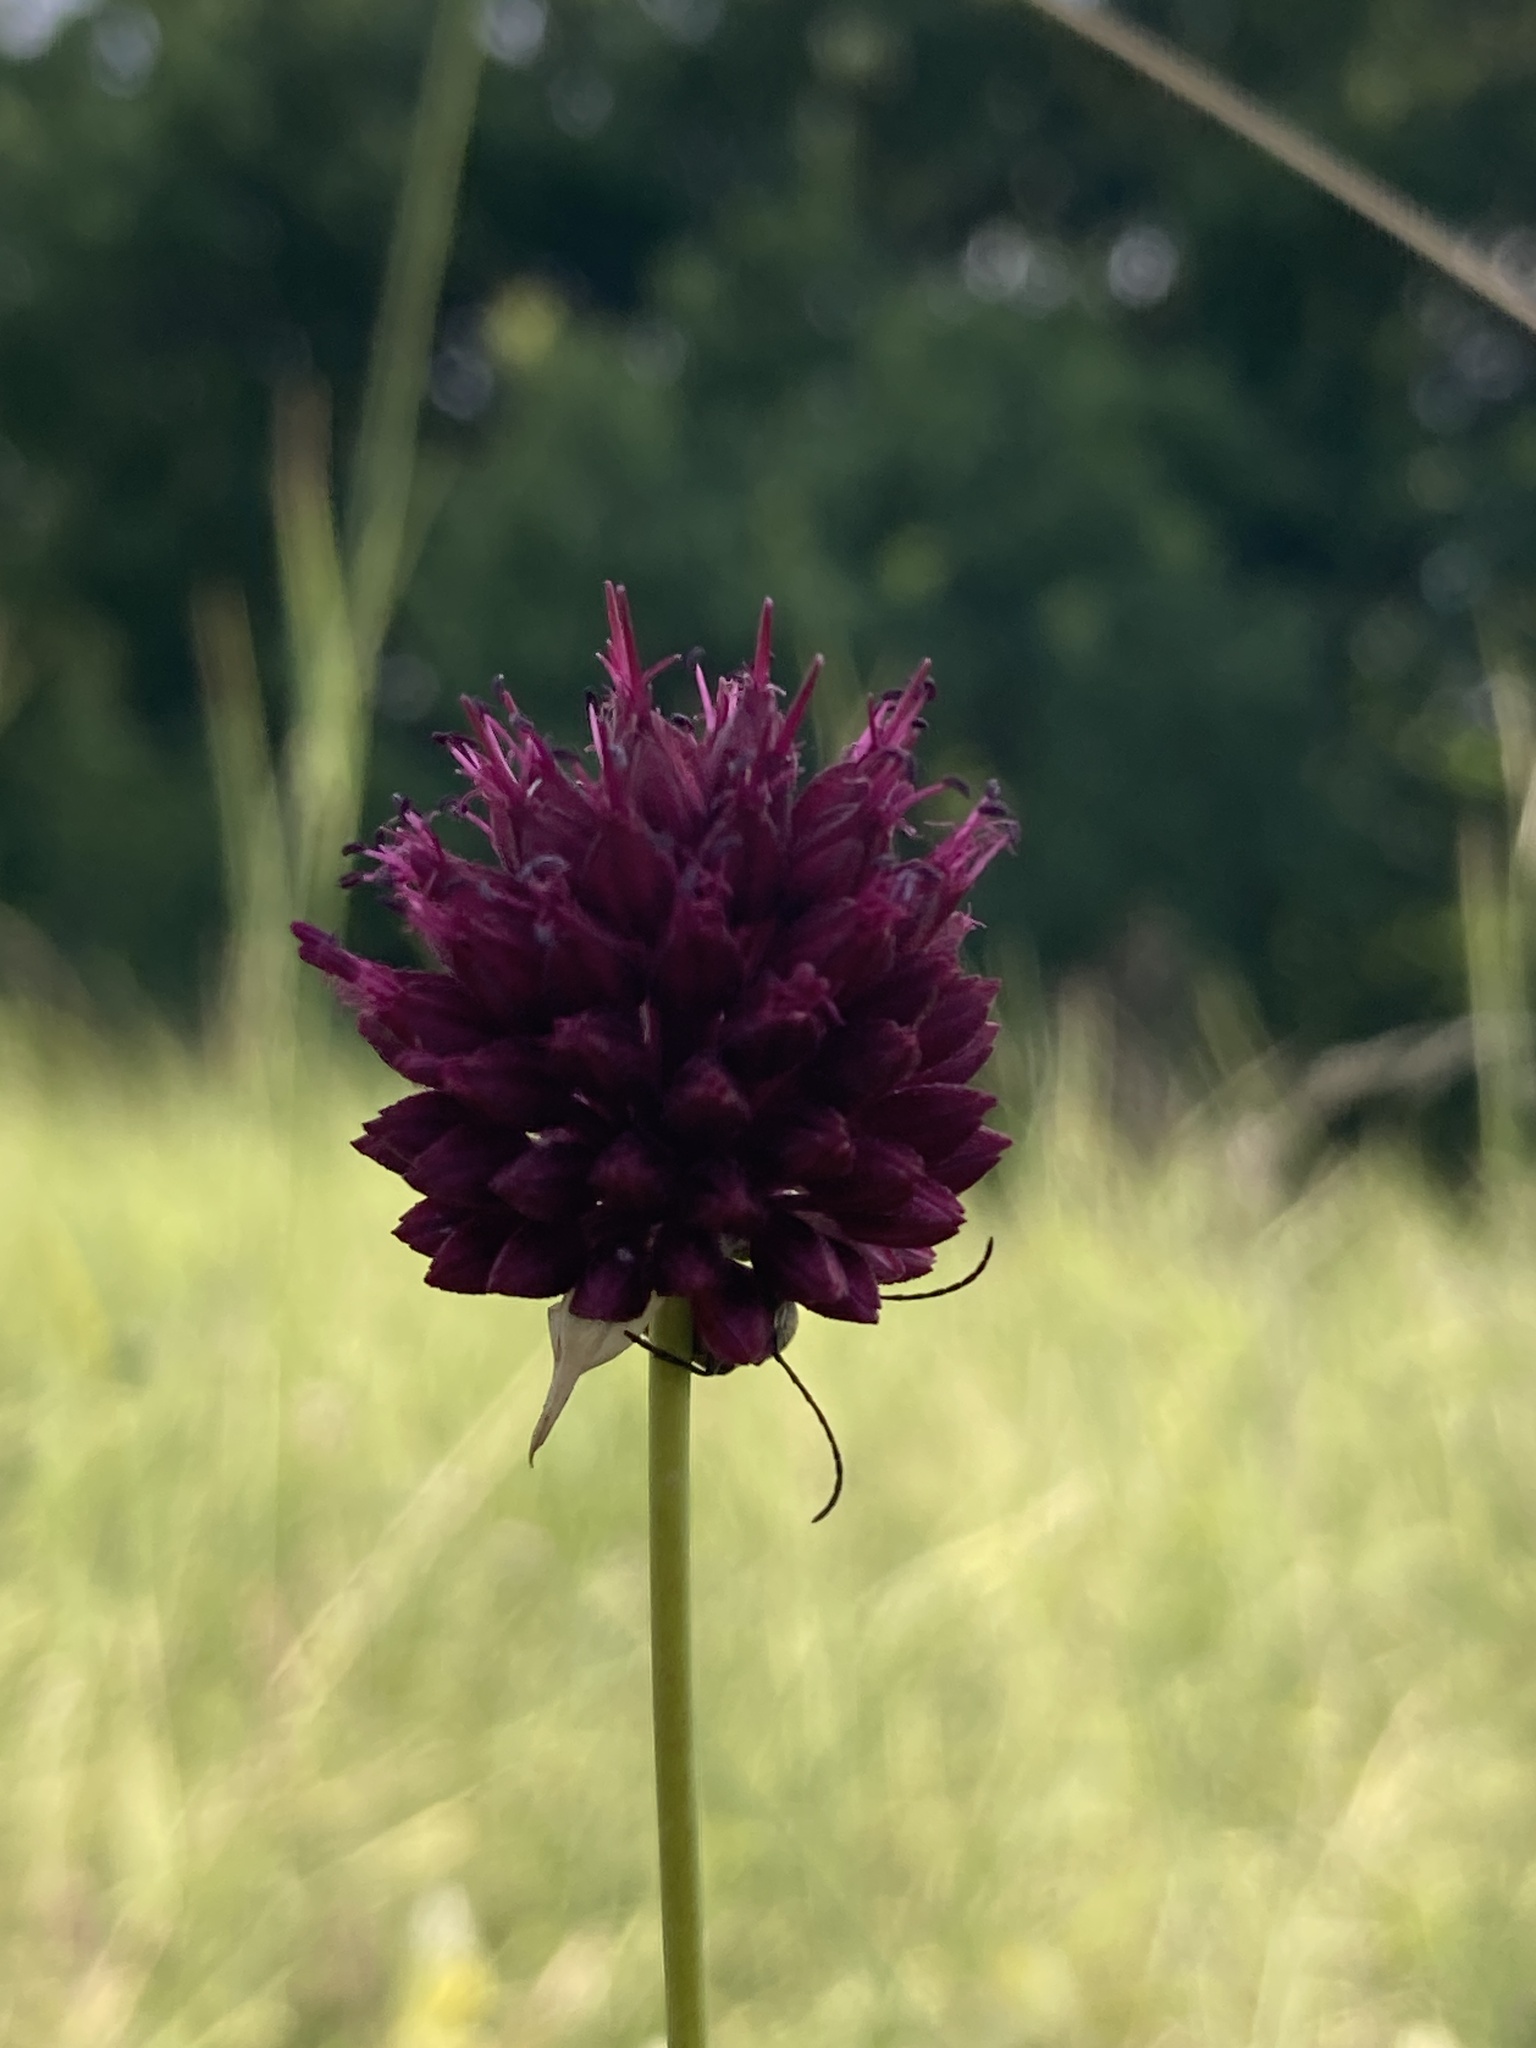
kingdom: Plantae
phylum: Tracheophyta
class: Liliopsida
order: Asparagales
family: Amaryllidaceae
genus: Allium
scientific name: Allium sphaerocephalon
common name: Round-headed leek
